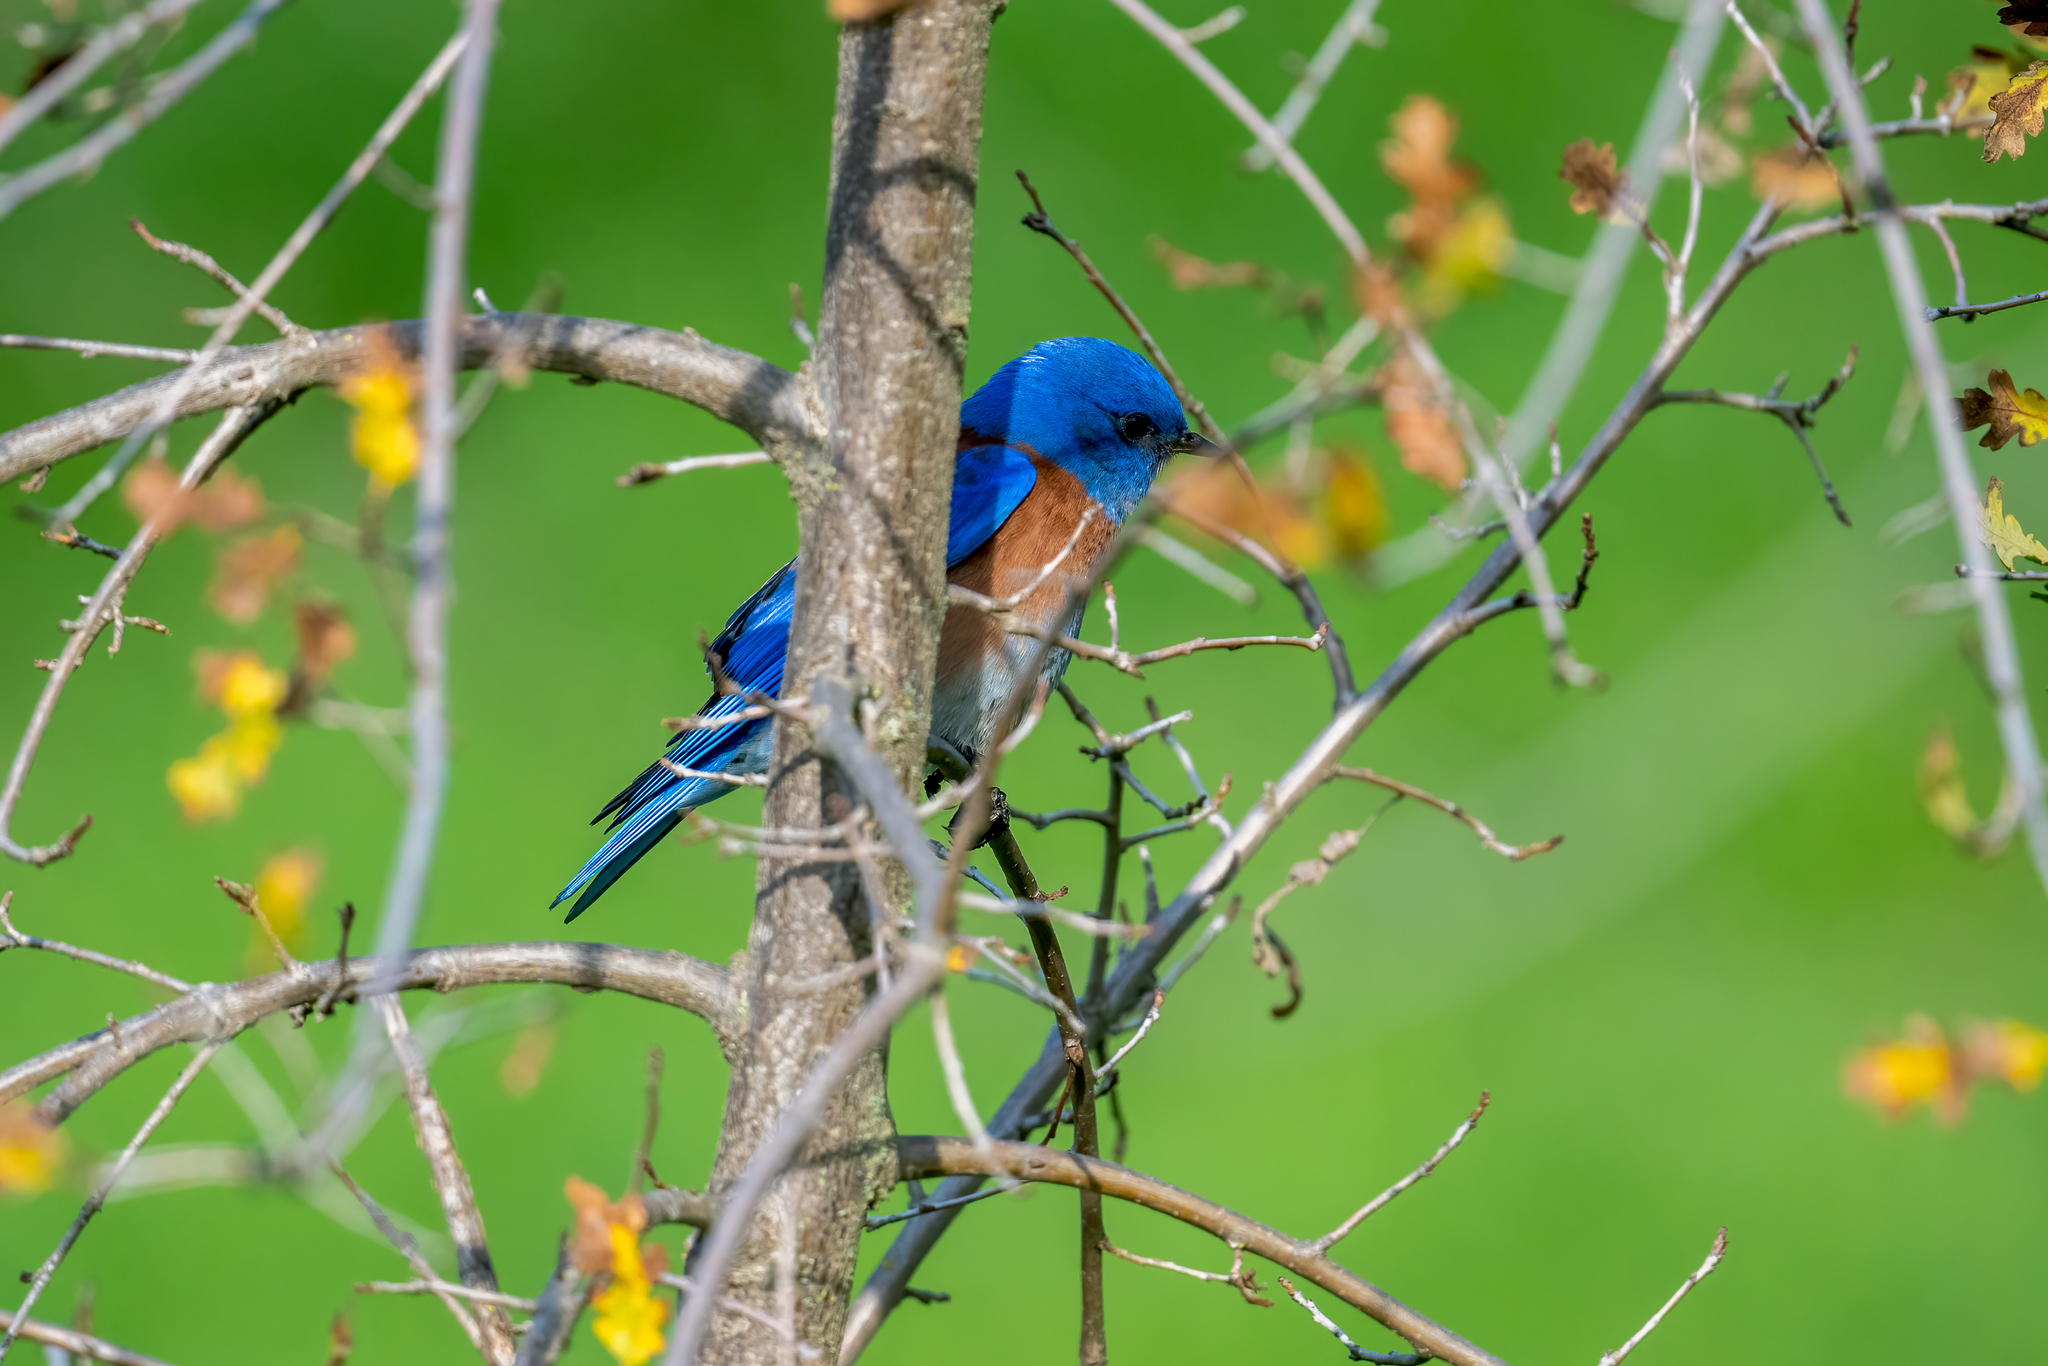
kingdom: Animalia
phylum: Chordata
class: Aves
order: Passeriformes
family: Turdidae
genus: Sialia
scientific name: Sialia mexicana
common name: Western bluebird
